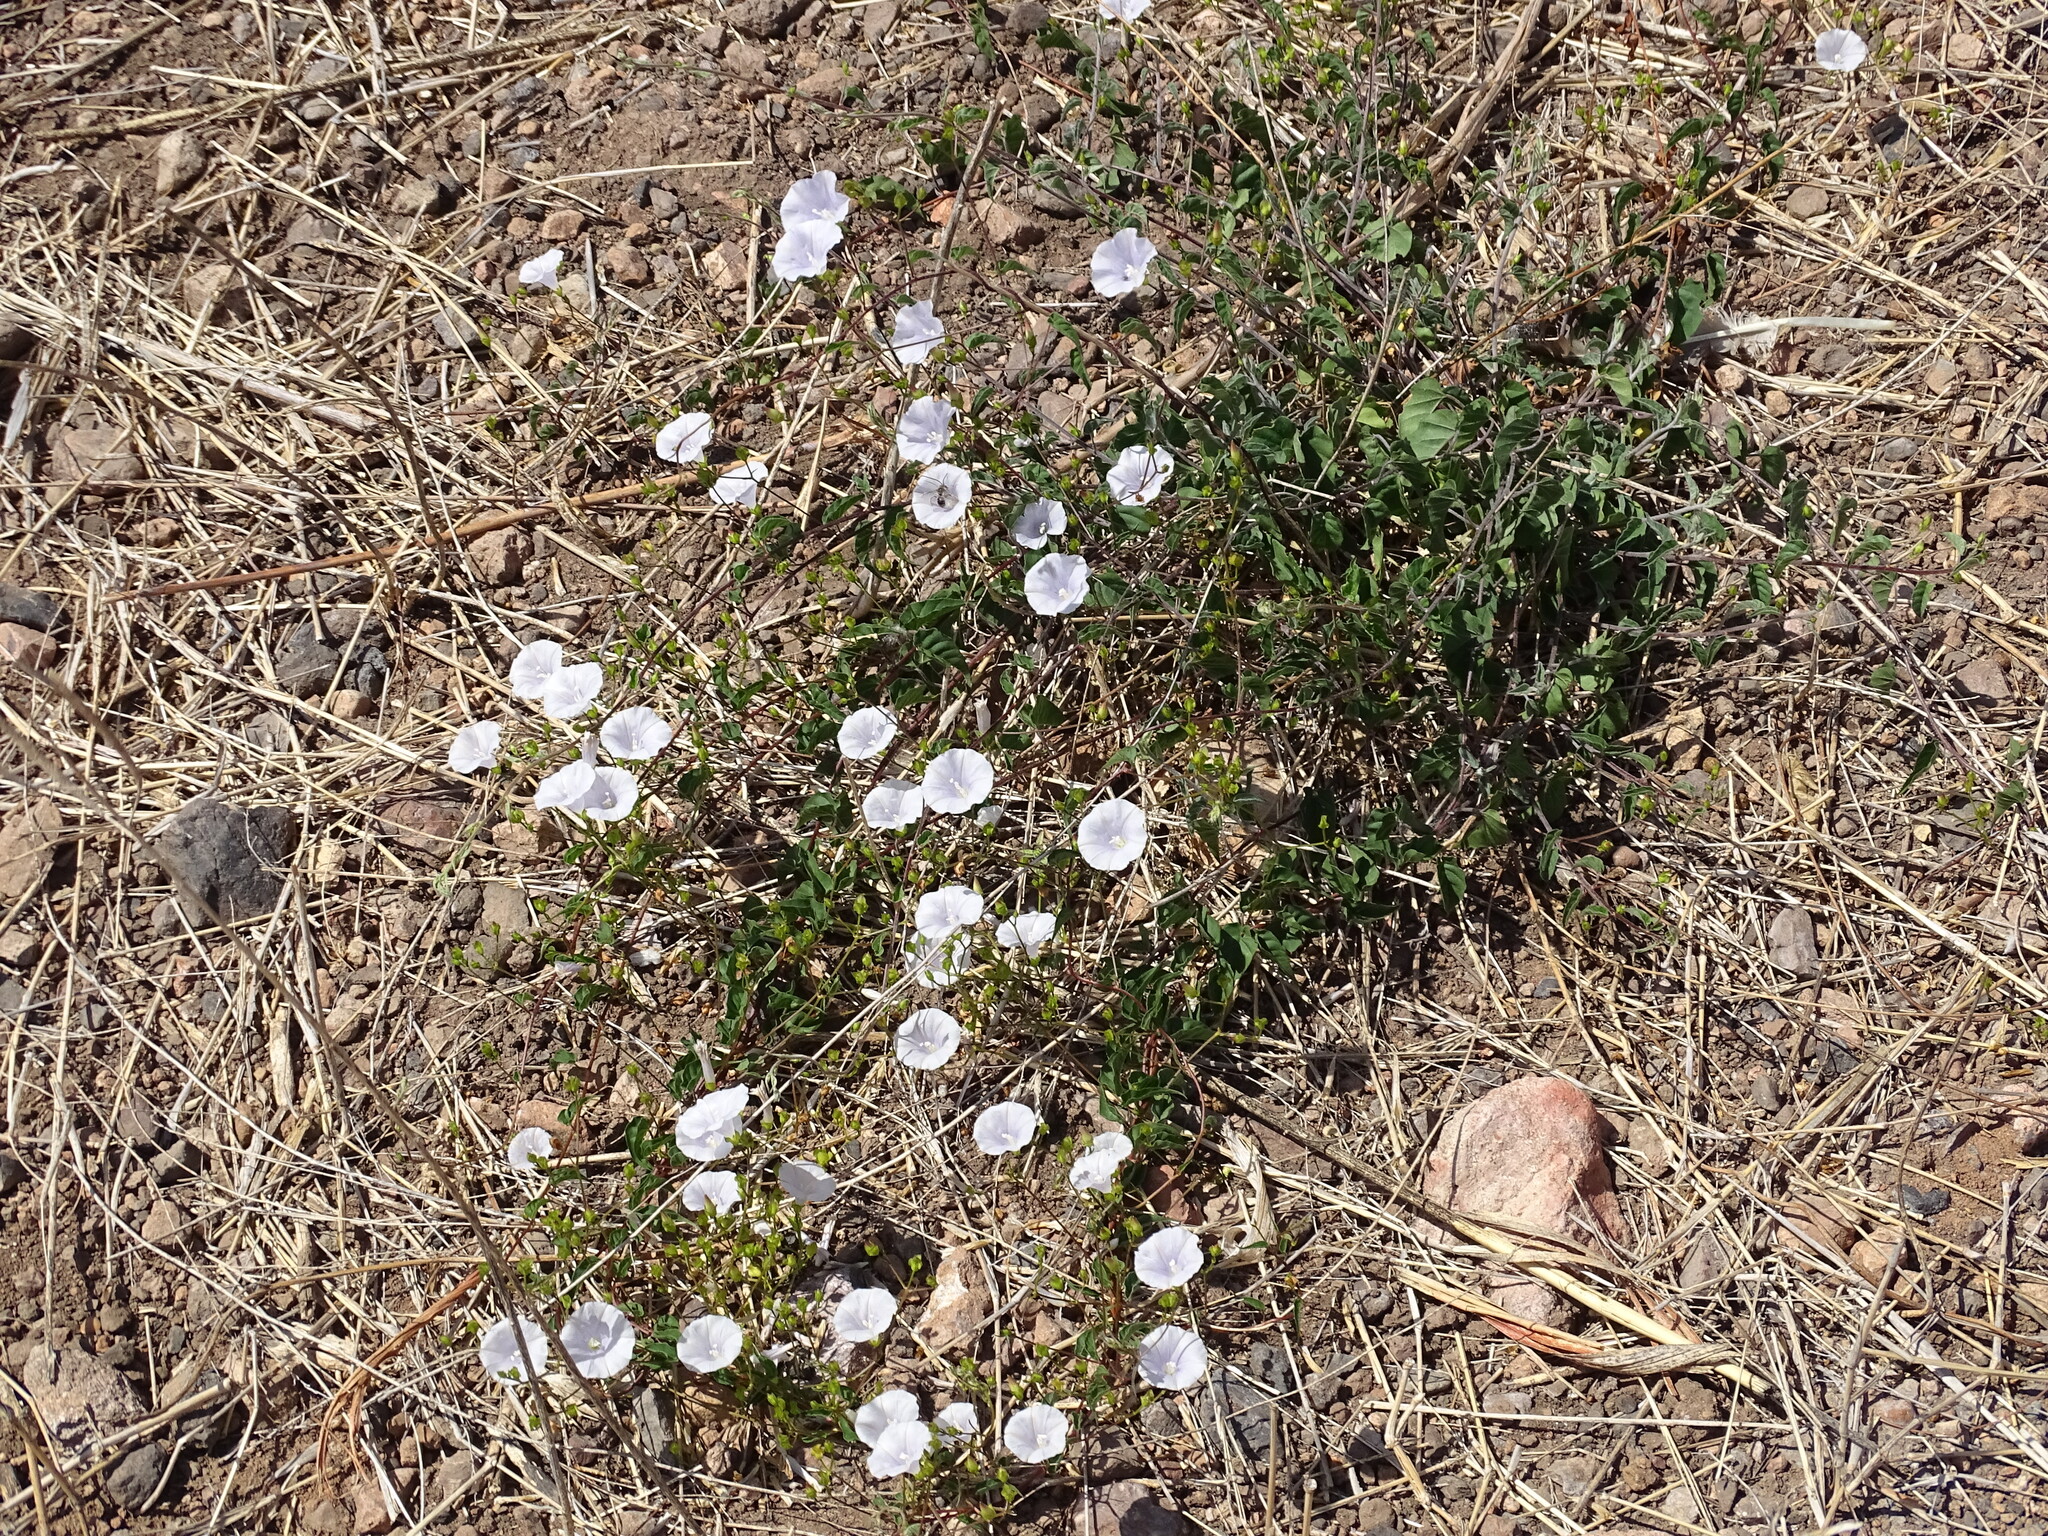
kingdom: Plantae
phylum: Tracheophyta
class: Magnoliopsida
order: Solanales
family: Convolvulaceae
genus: Jacquemontia
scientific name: Jacquemontia pringlei
